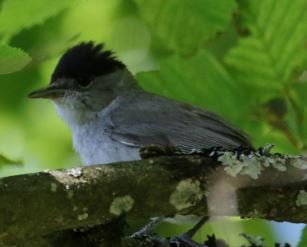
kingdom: Animalia
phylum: Chordata
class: Aves
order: Passeriformes
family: Sylviidae
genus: Sylvia
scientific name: Sylvia atricapilla
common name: Eurasian blackcap
